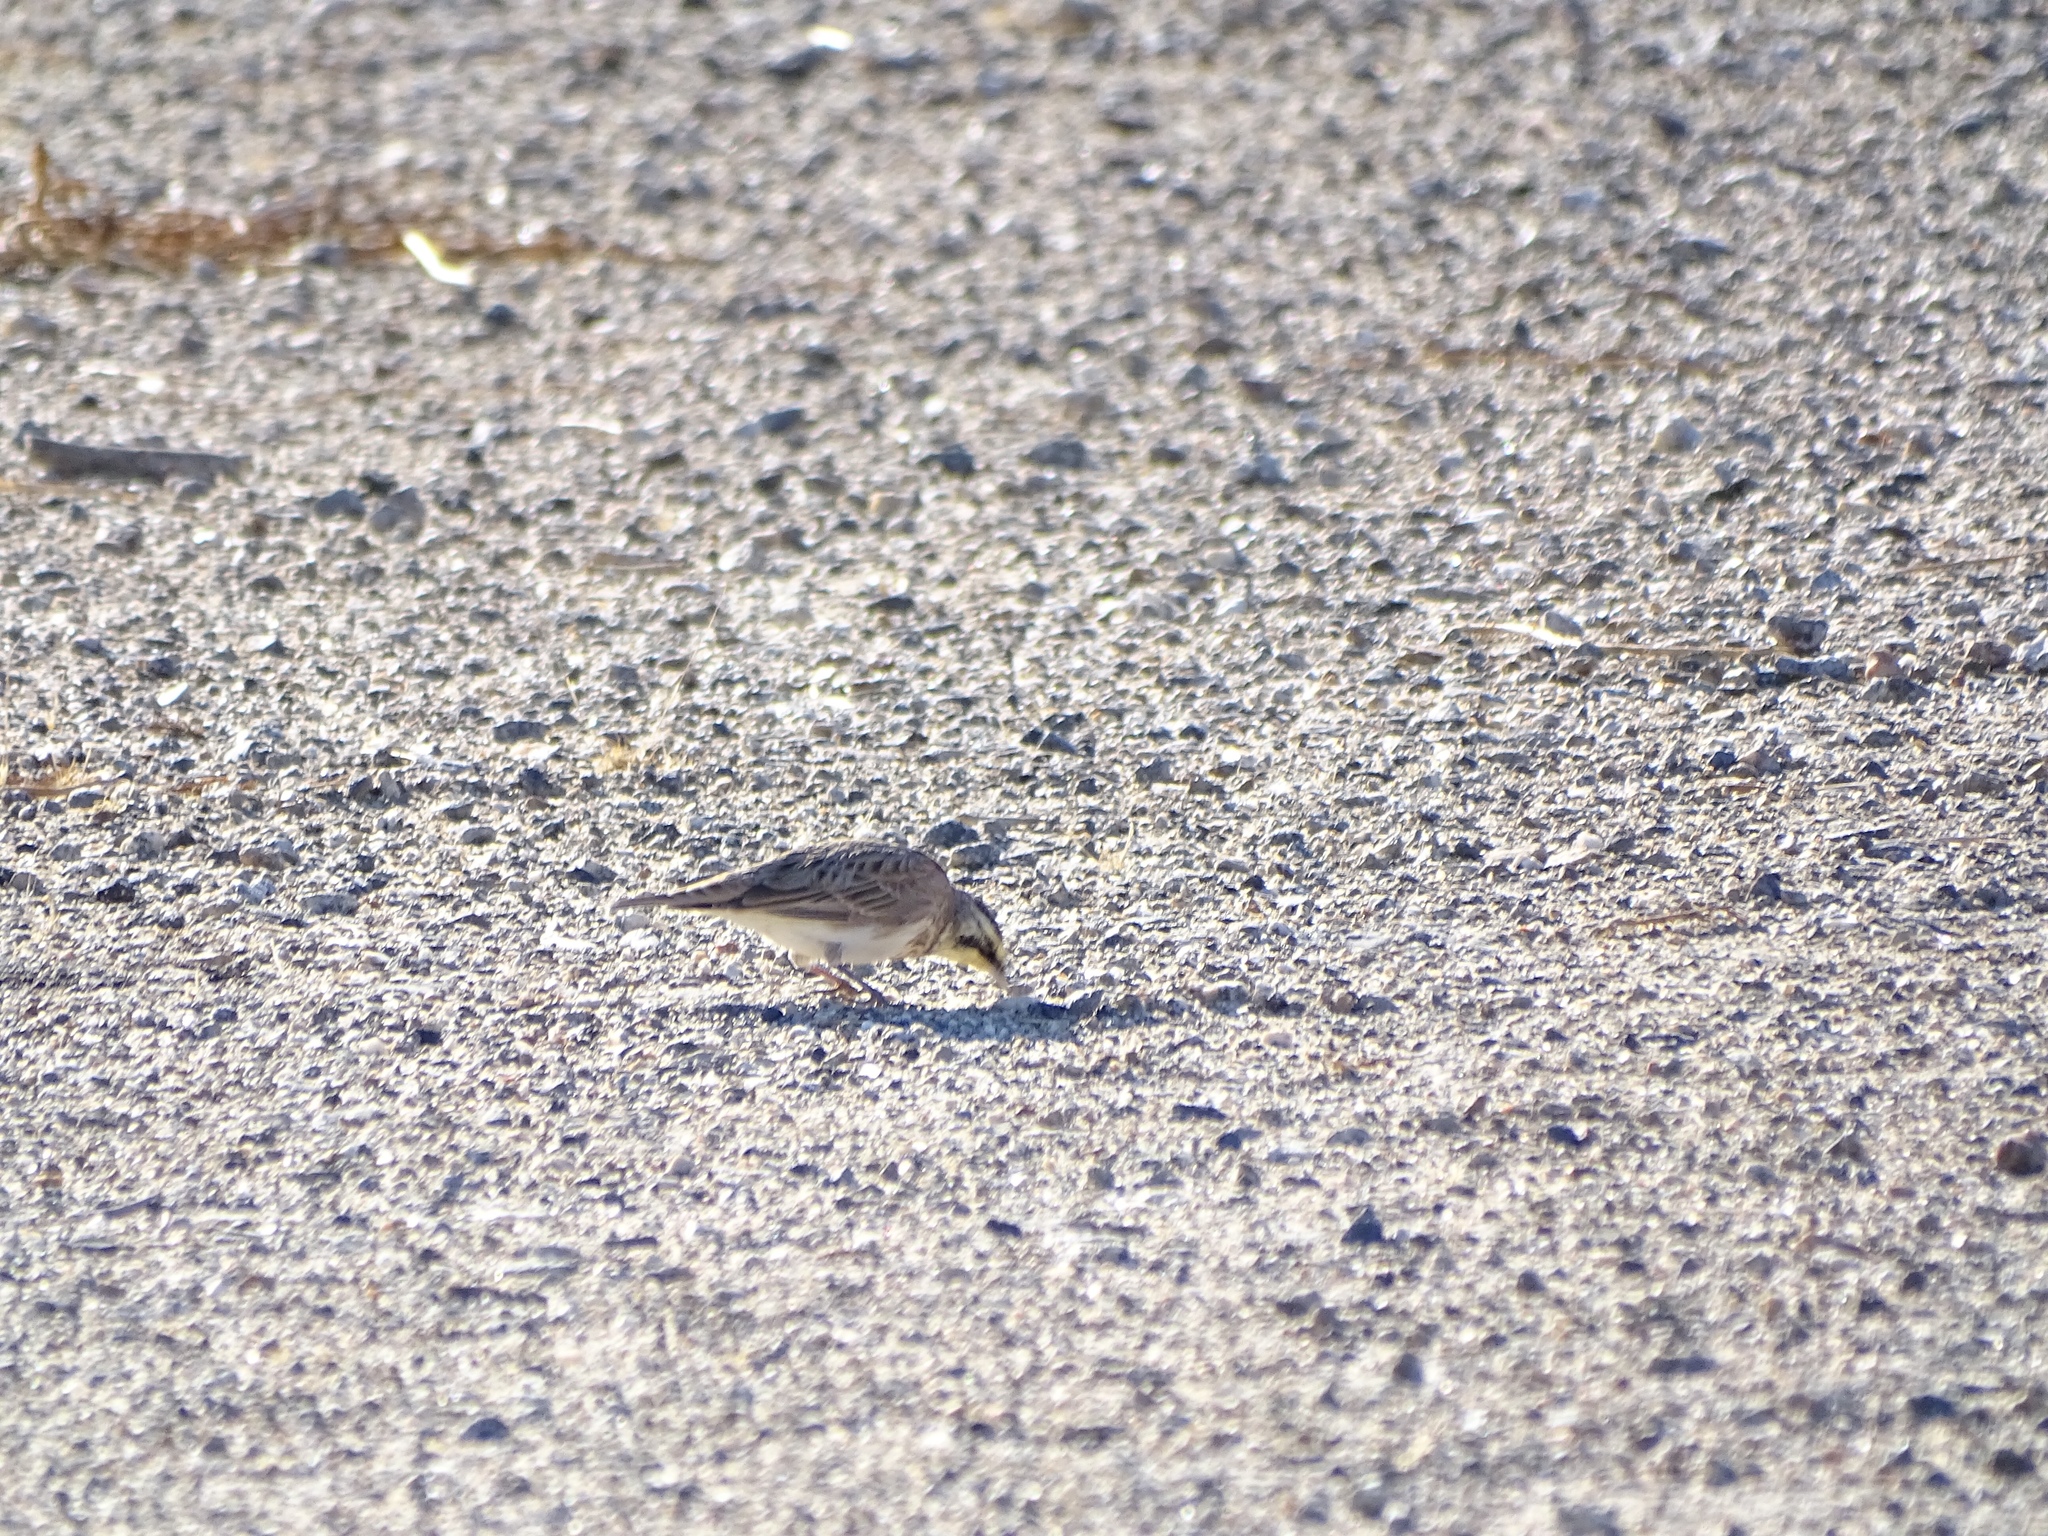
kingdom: Animalia
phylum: Chordata
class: Aves
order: Passeriformes
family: Alaudidae
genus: Eremophila
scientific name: Eremophila alpestris
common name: Horned lark
